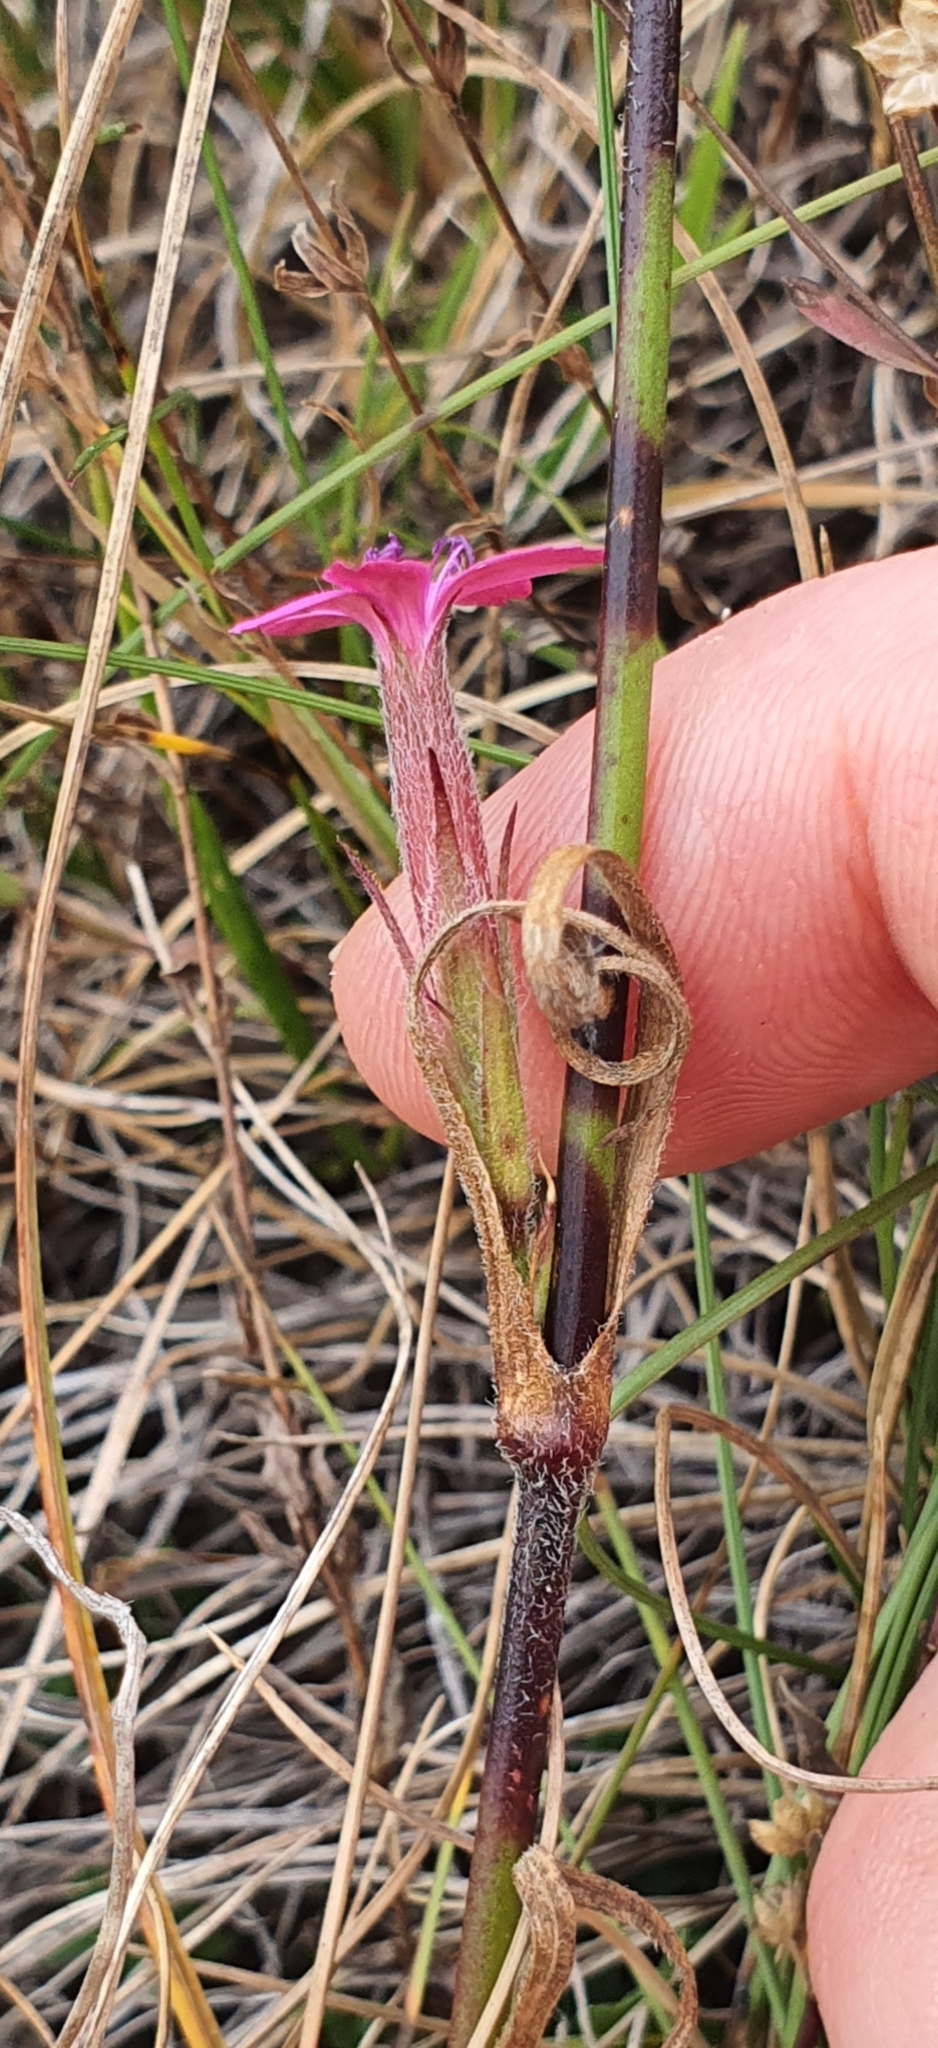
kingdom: Plantae
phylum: Tracheophyta
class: Magnoliopsida
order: Caryophyllales
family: Caryophyllaceae
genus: Dianthus
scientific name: Dianthus armeria
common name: Deptford pink
